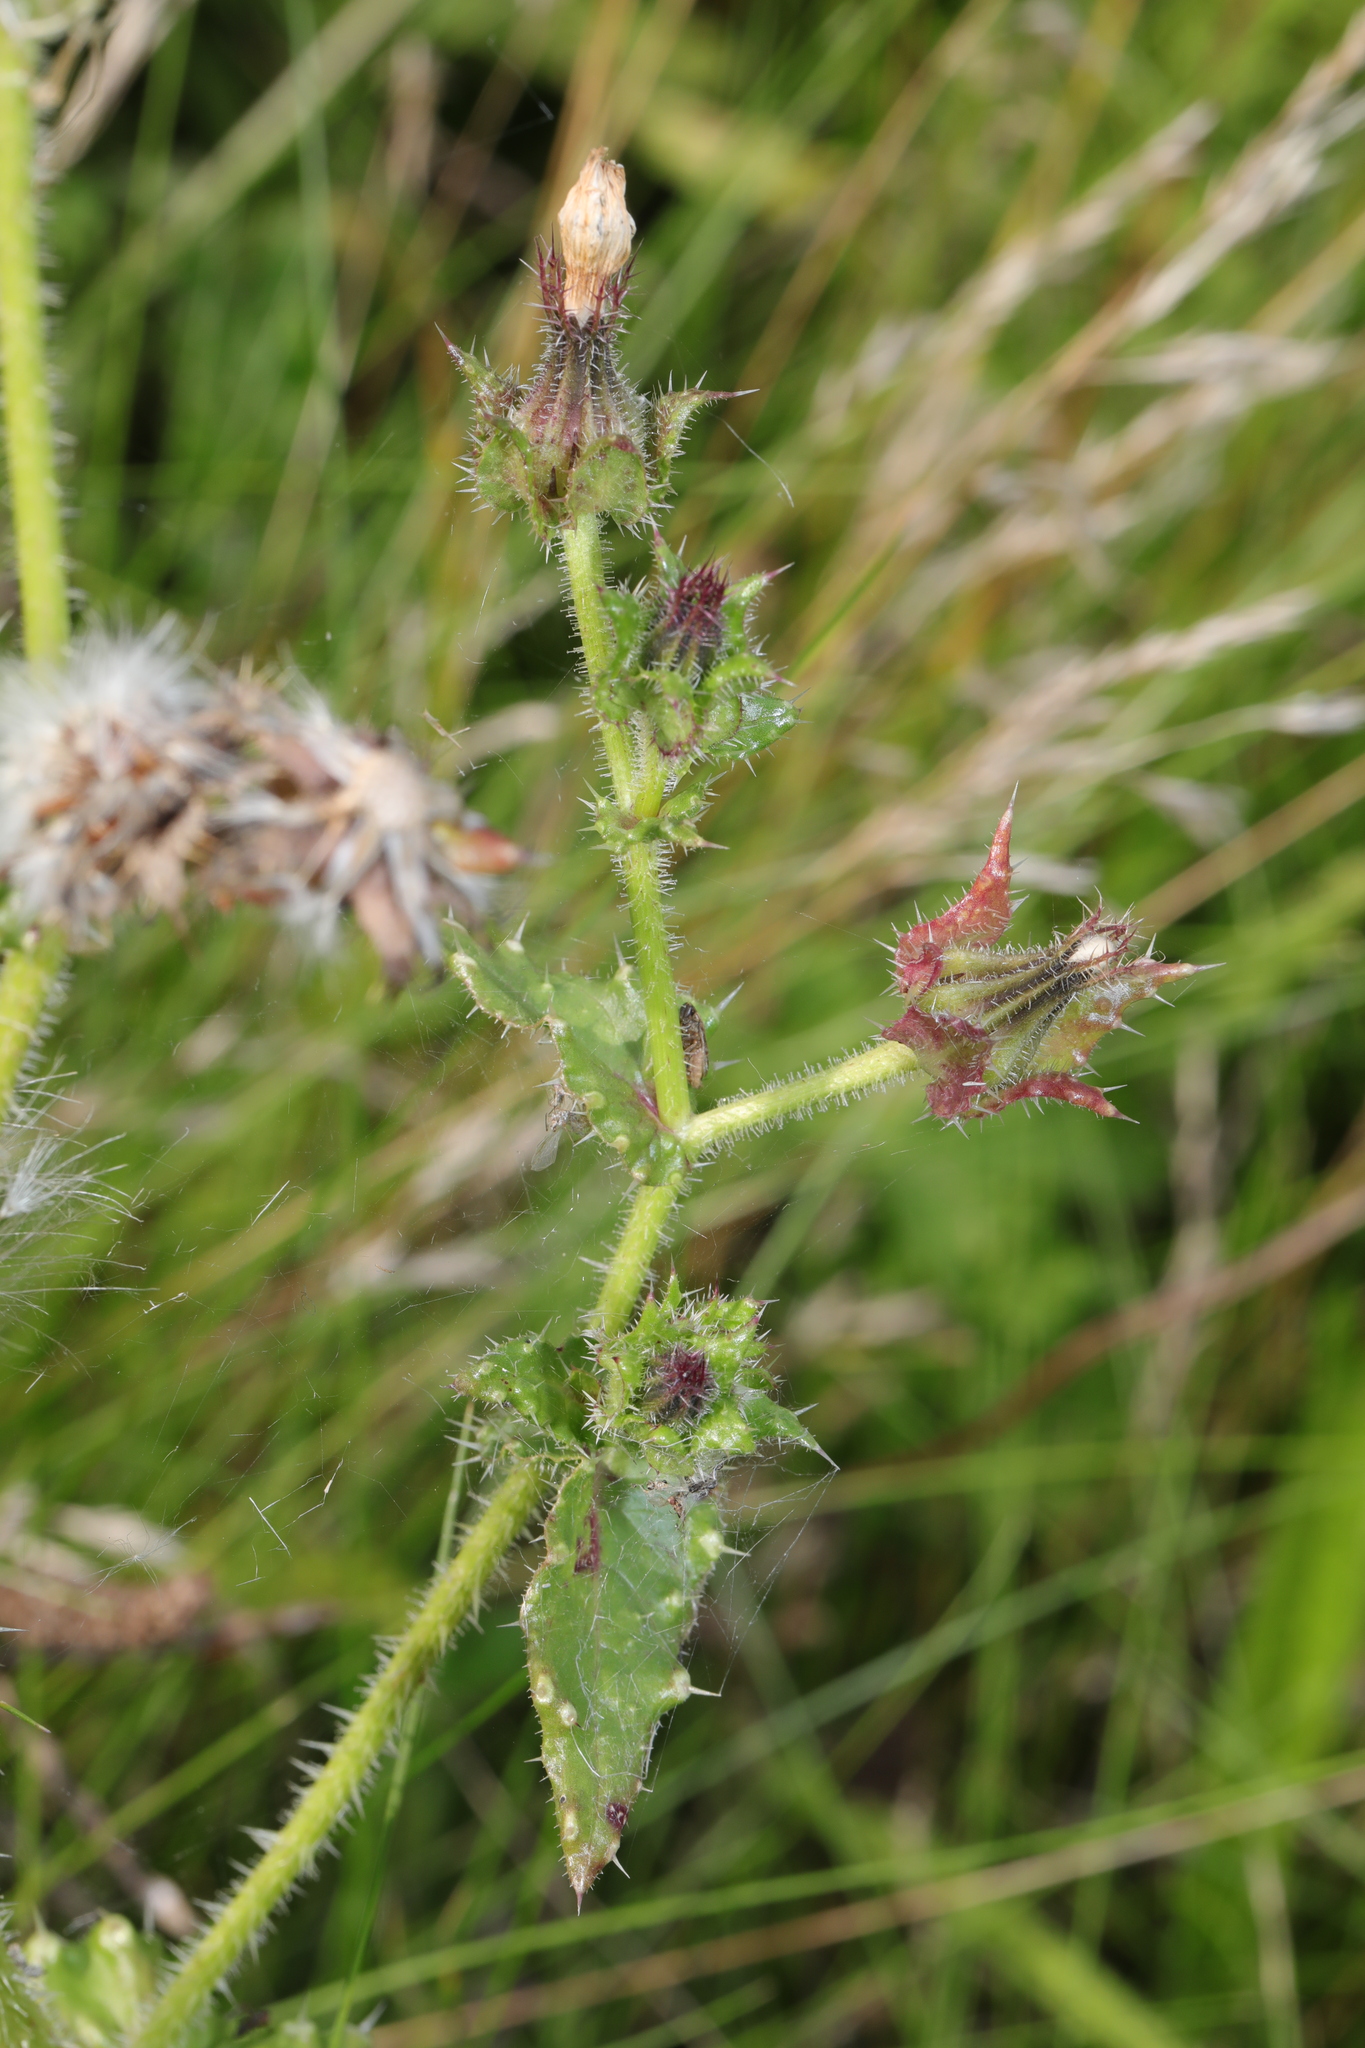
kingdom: Plantae
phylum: Tracheophyta
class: Magnoliopsida
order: Asterales
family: Asteraceae
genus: Helminthotheca
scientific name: Helminthotheca echioides
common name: Ox-tongue
